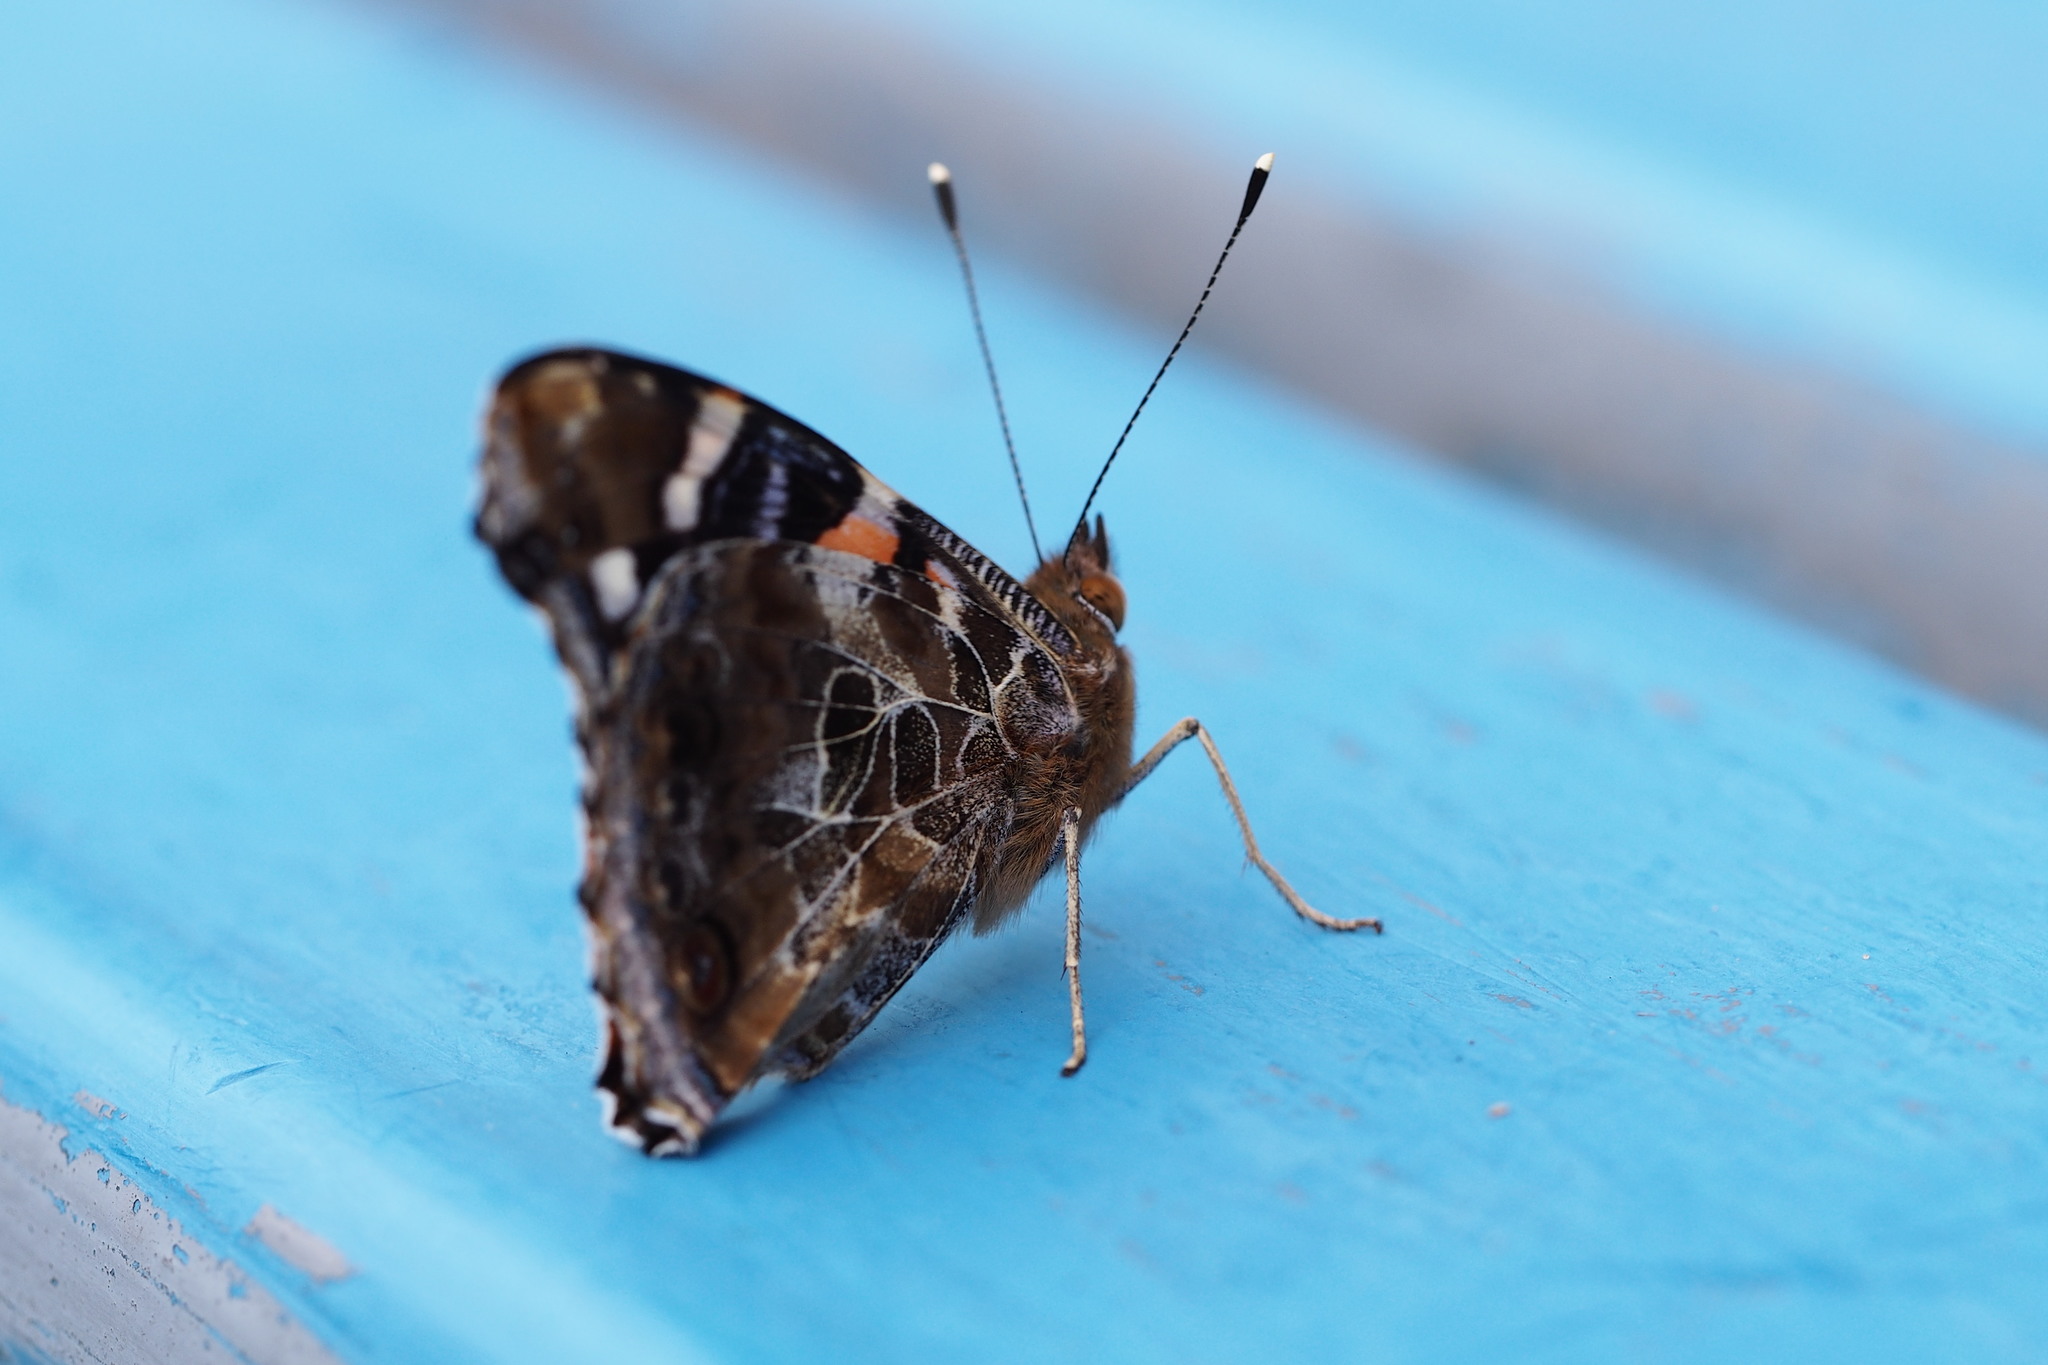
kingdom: Animalia
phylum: Arthropoda
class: Insecta
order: Lepidoptera
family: Nymphalidae
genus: Vanessa
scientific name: Vanessa indica
